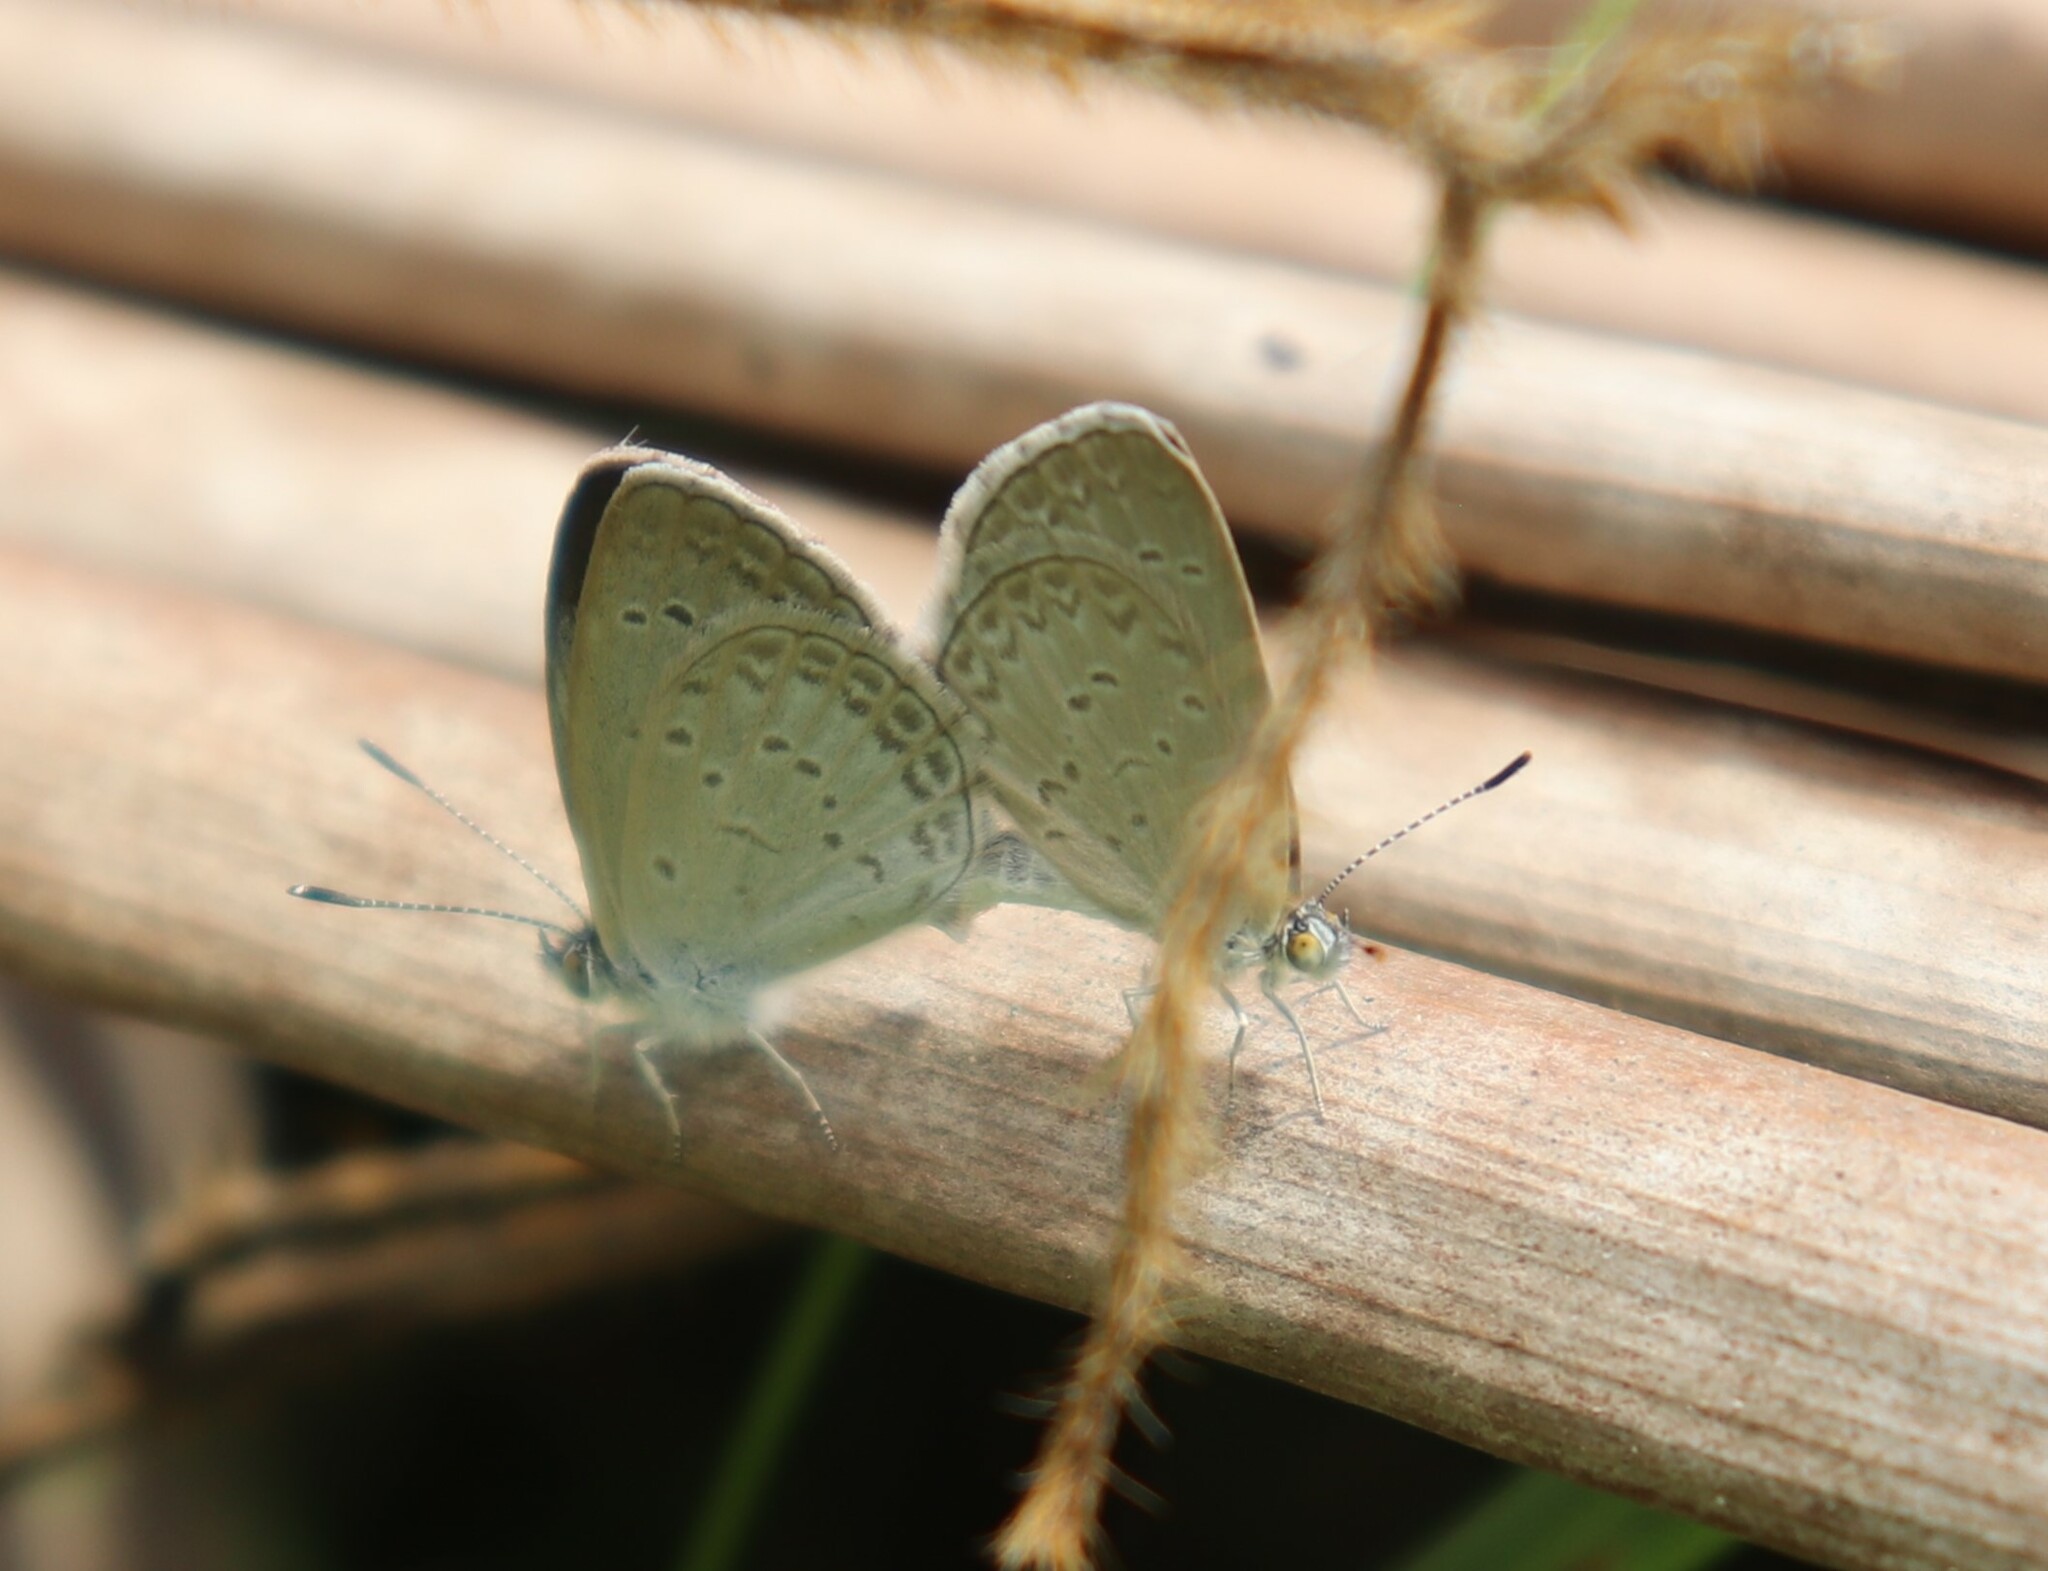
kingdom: Animalia
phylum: Arthropoda
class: Insecta
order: Lepidoptera
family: Lycaenidae
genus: Zizina
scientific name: Zizina otis
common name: Lesser grass blue
